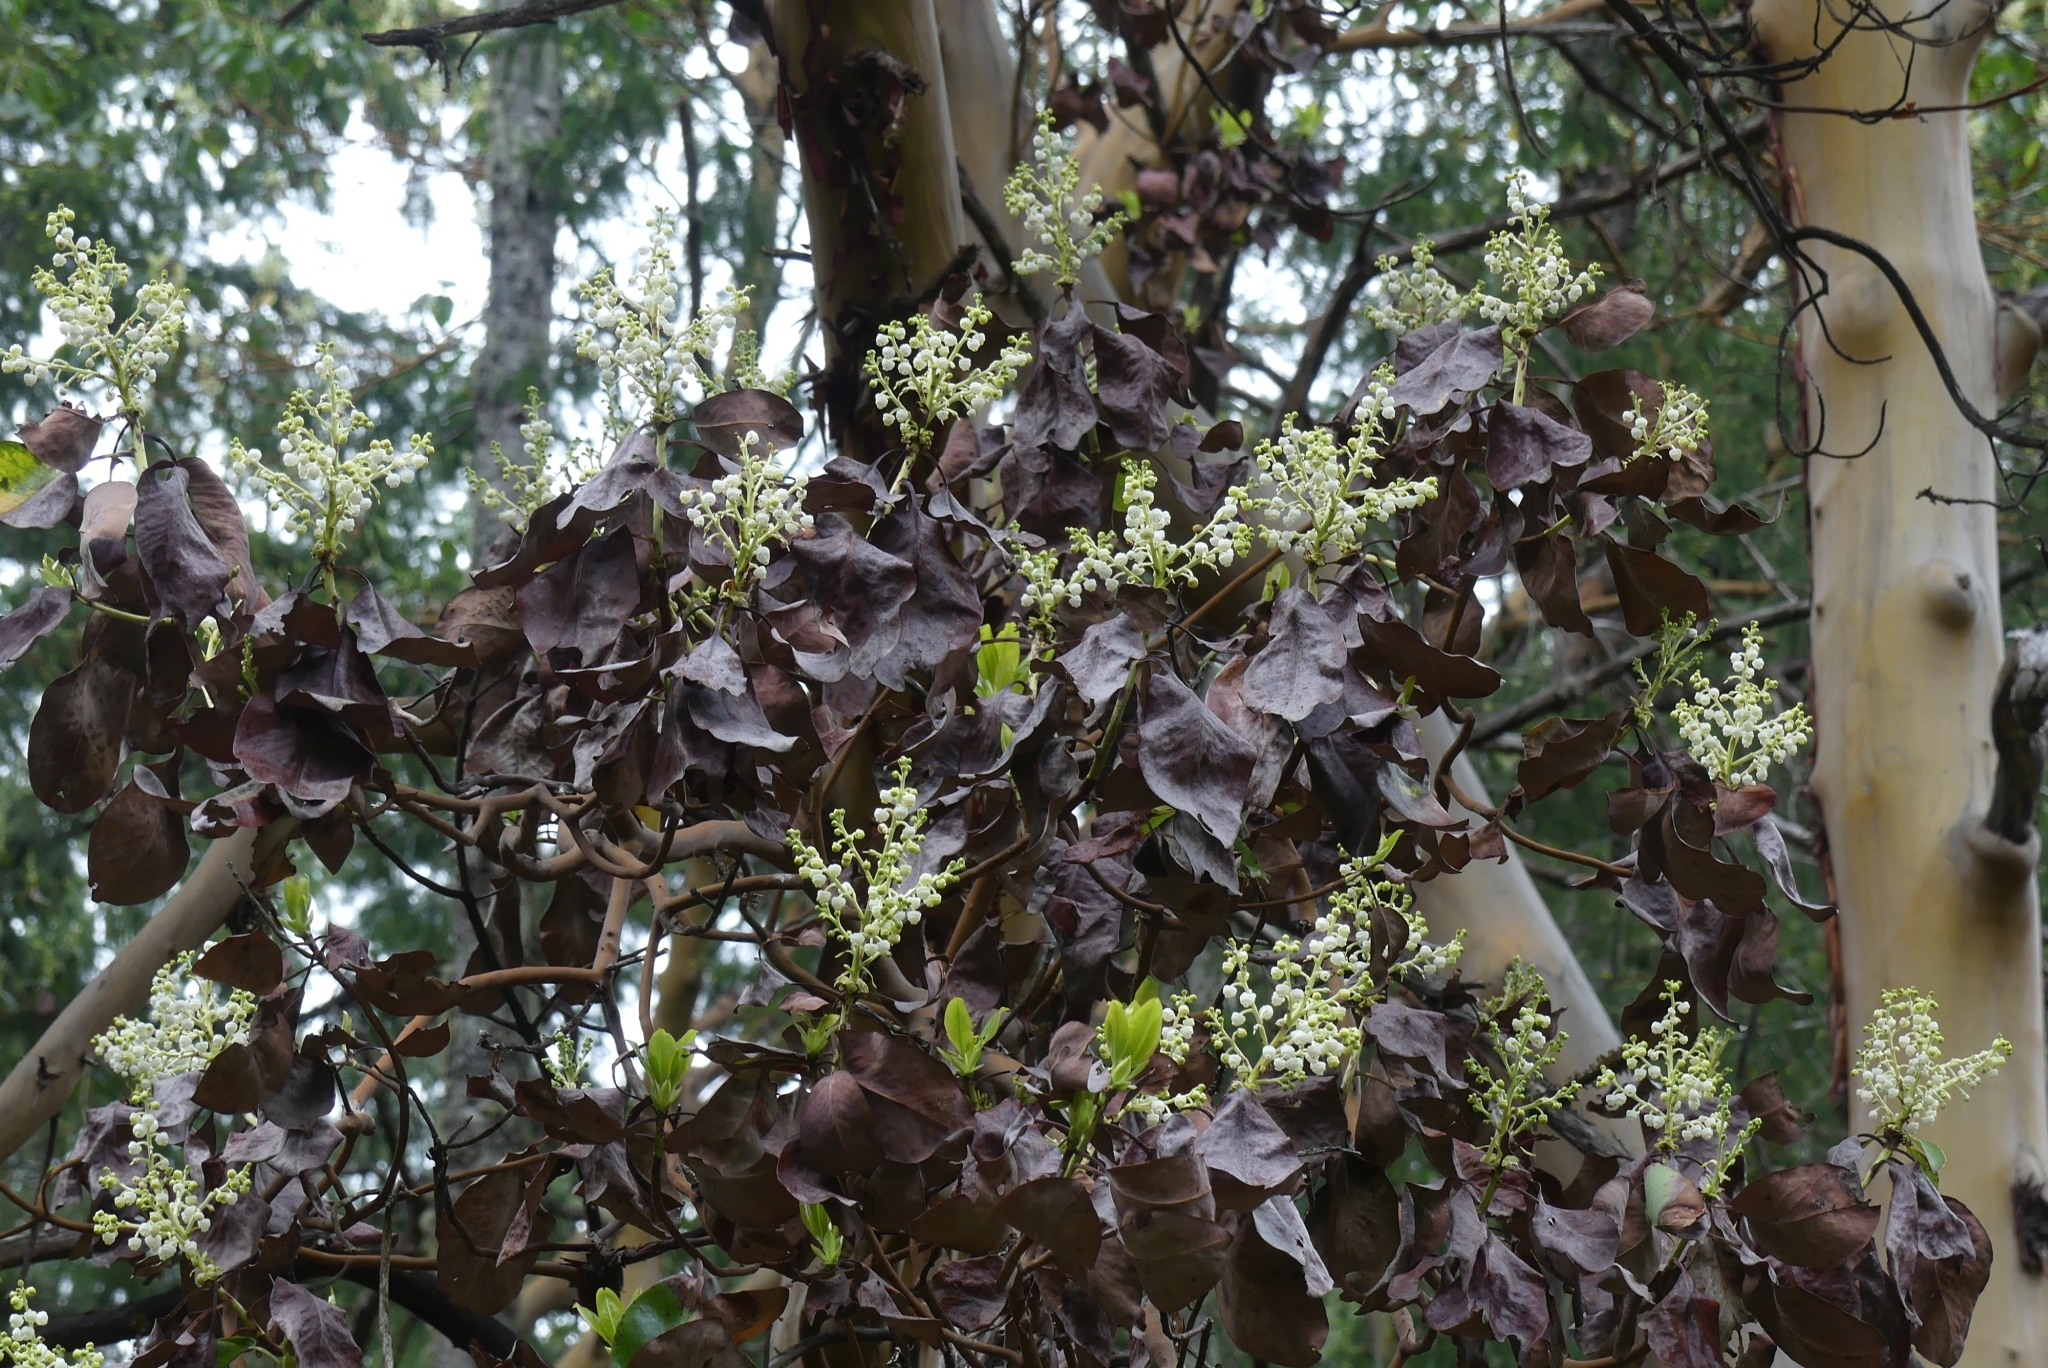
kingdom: Plantae
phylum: Tracheophyta
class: Magnoliopsida
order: Ericales
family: Ericaceae
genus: Arbutus
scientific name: Arbutus menziesii
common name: Pacific madrone
